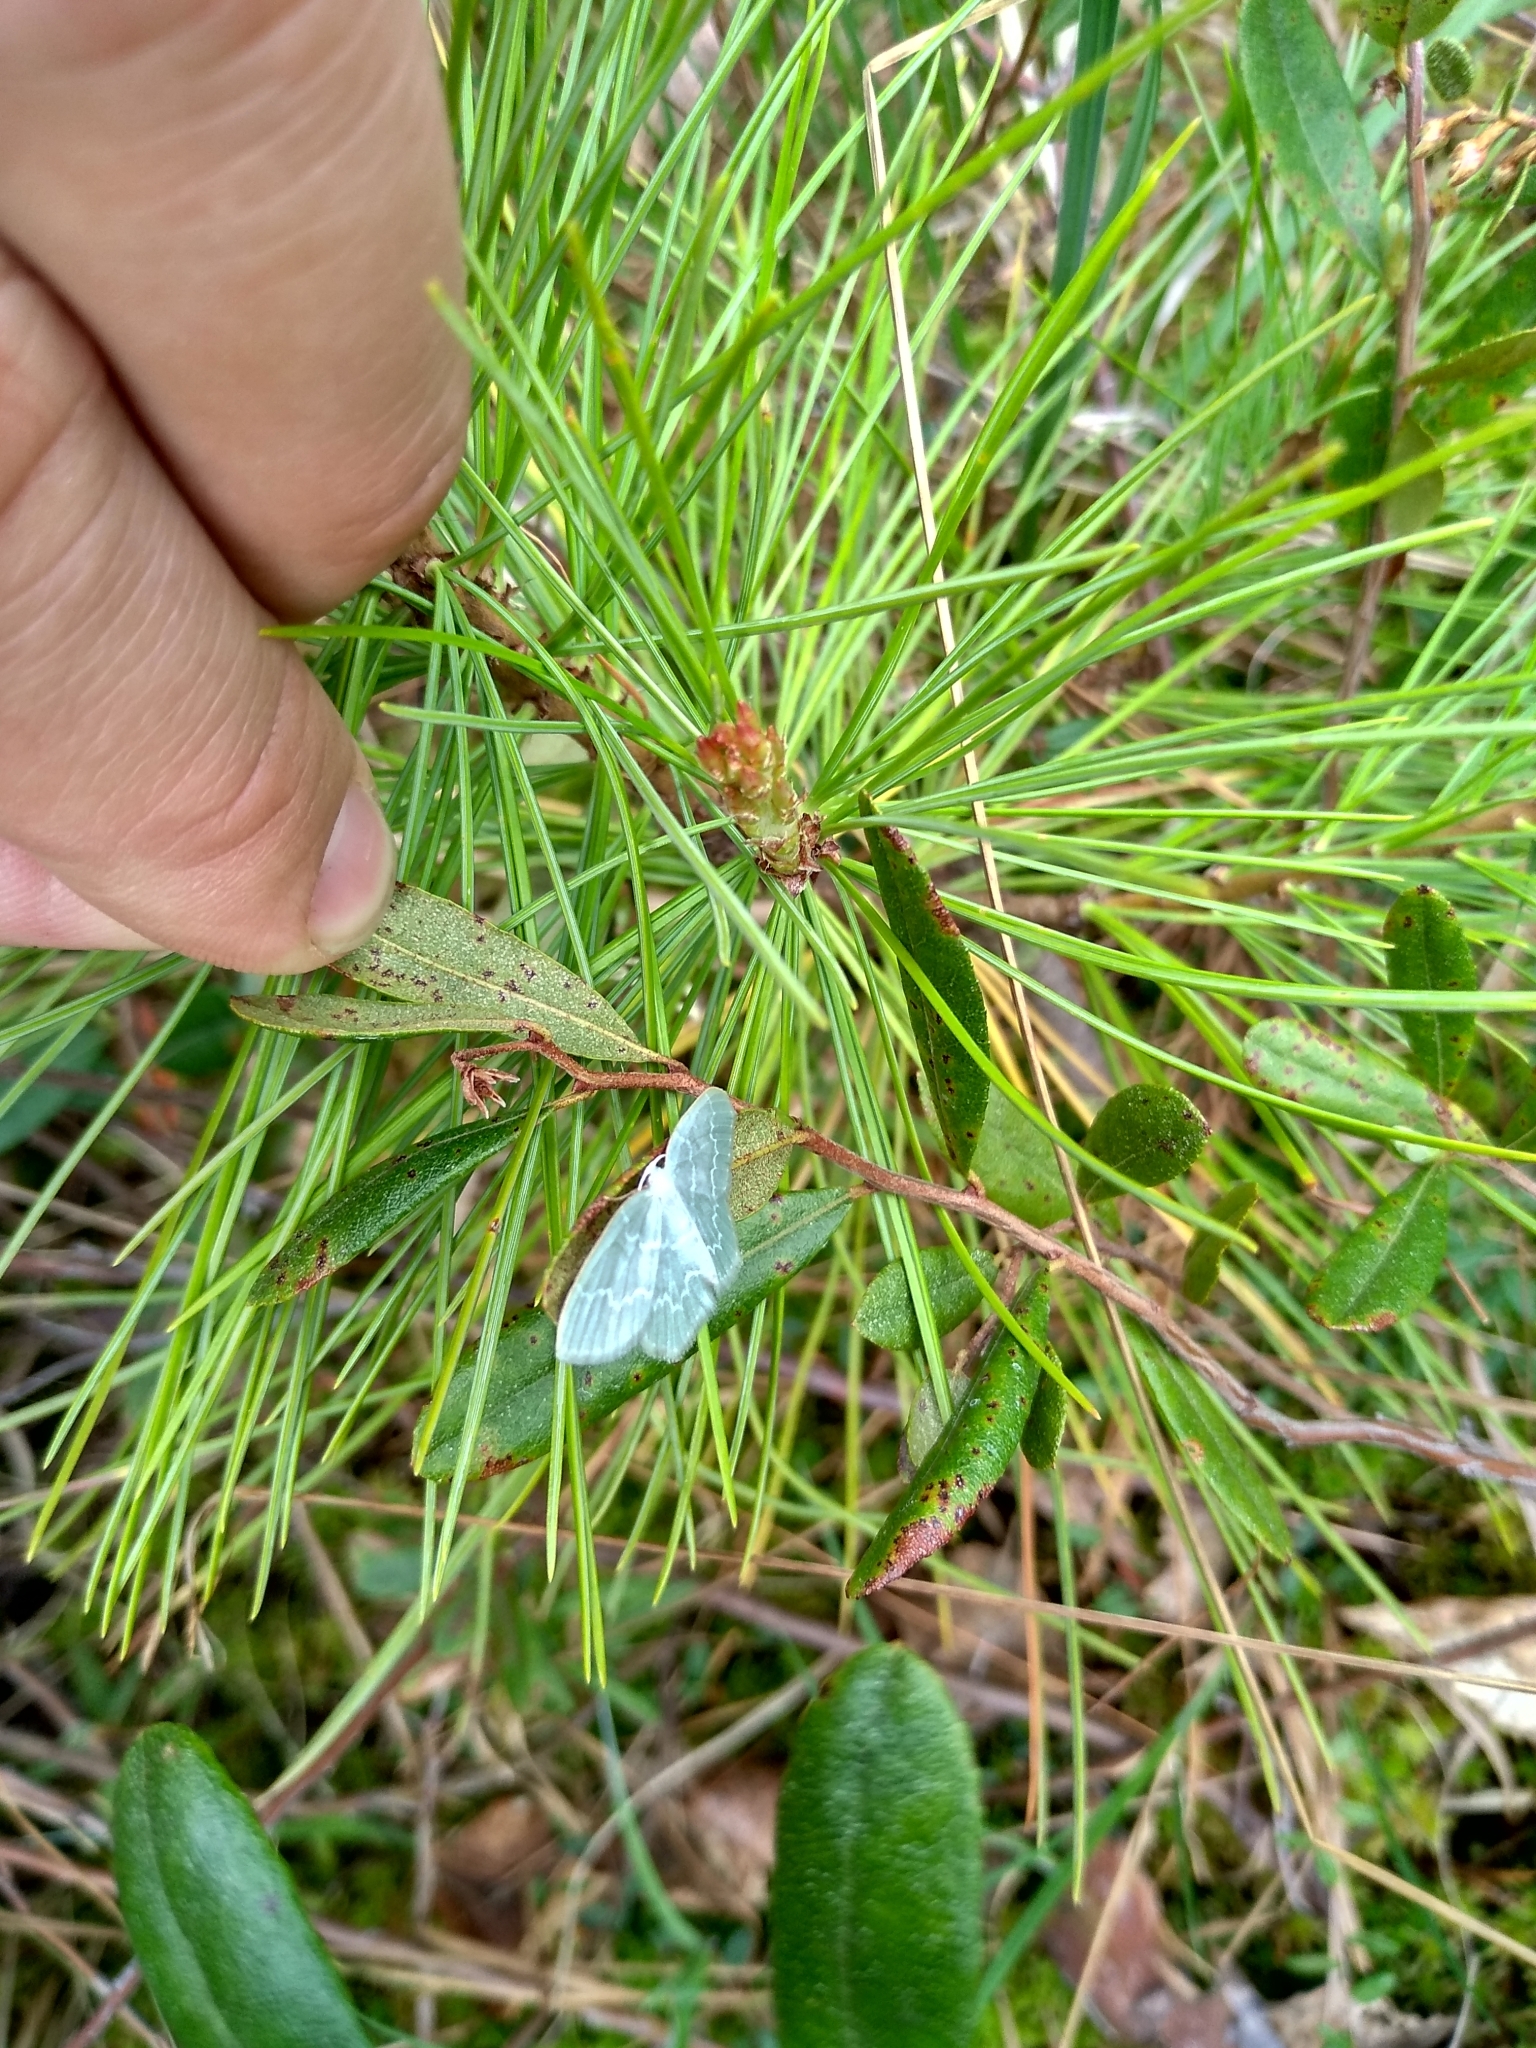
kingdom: Animalia
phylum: Arthropoda
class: Insecta
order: Lepidoptera
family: Geometridae
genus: Jodis
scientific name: Jodis putata
